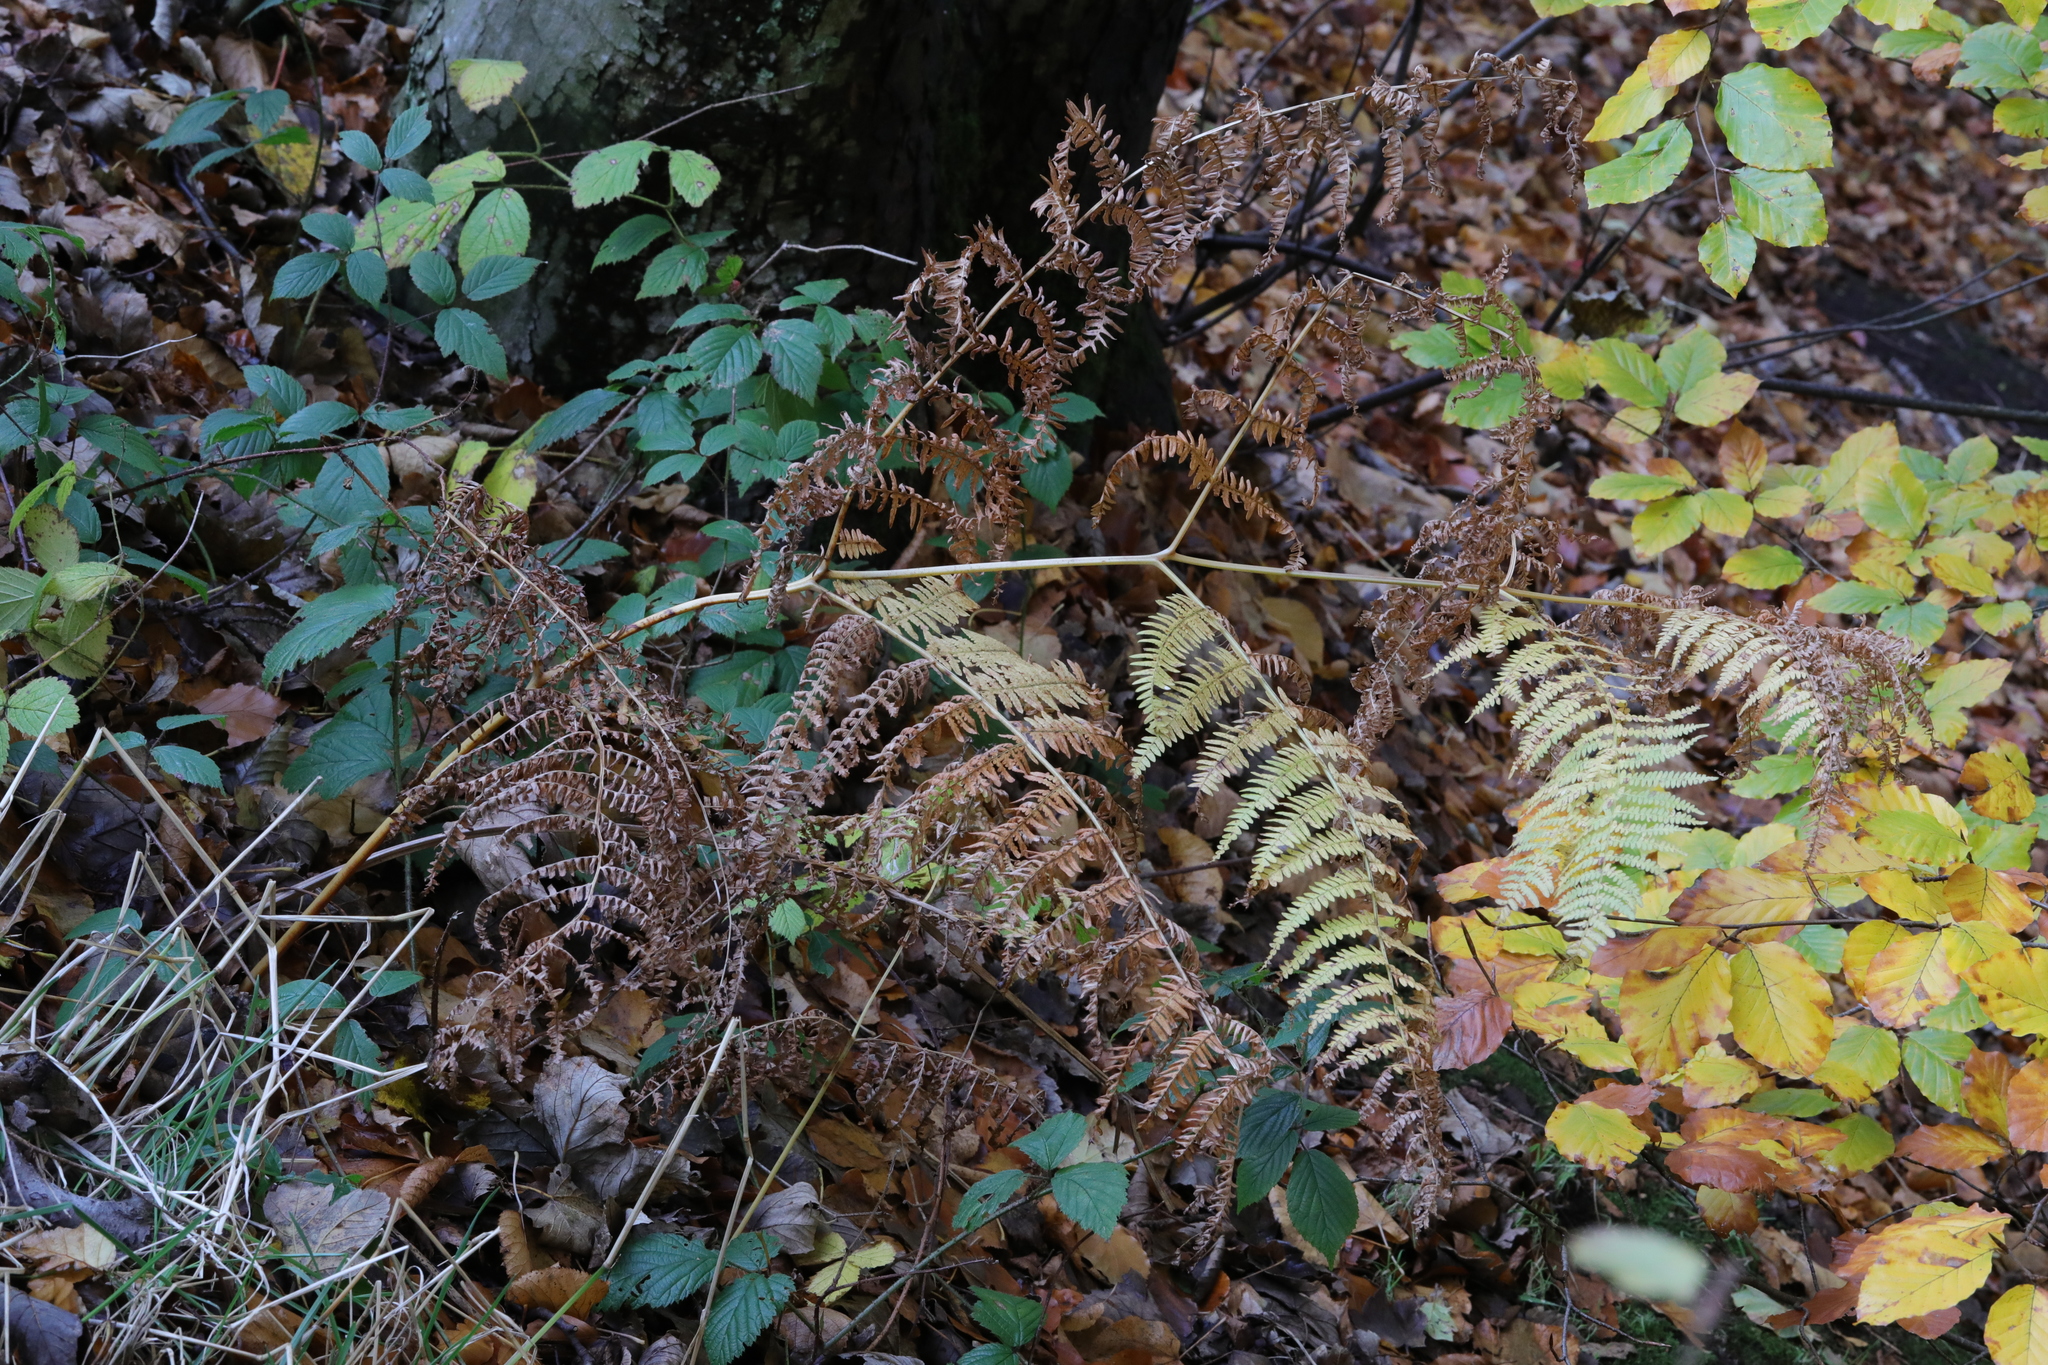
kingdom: Plantae
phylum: Tracheophyta
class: Polypodiopsida
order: Polypodiales
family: Dennstaedtiaceae
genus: Pteridium
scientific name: Pteridium aquilinum
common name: Bracken
